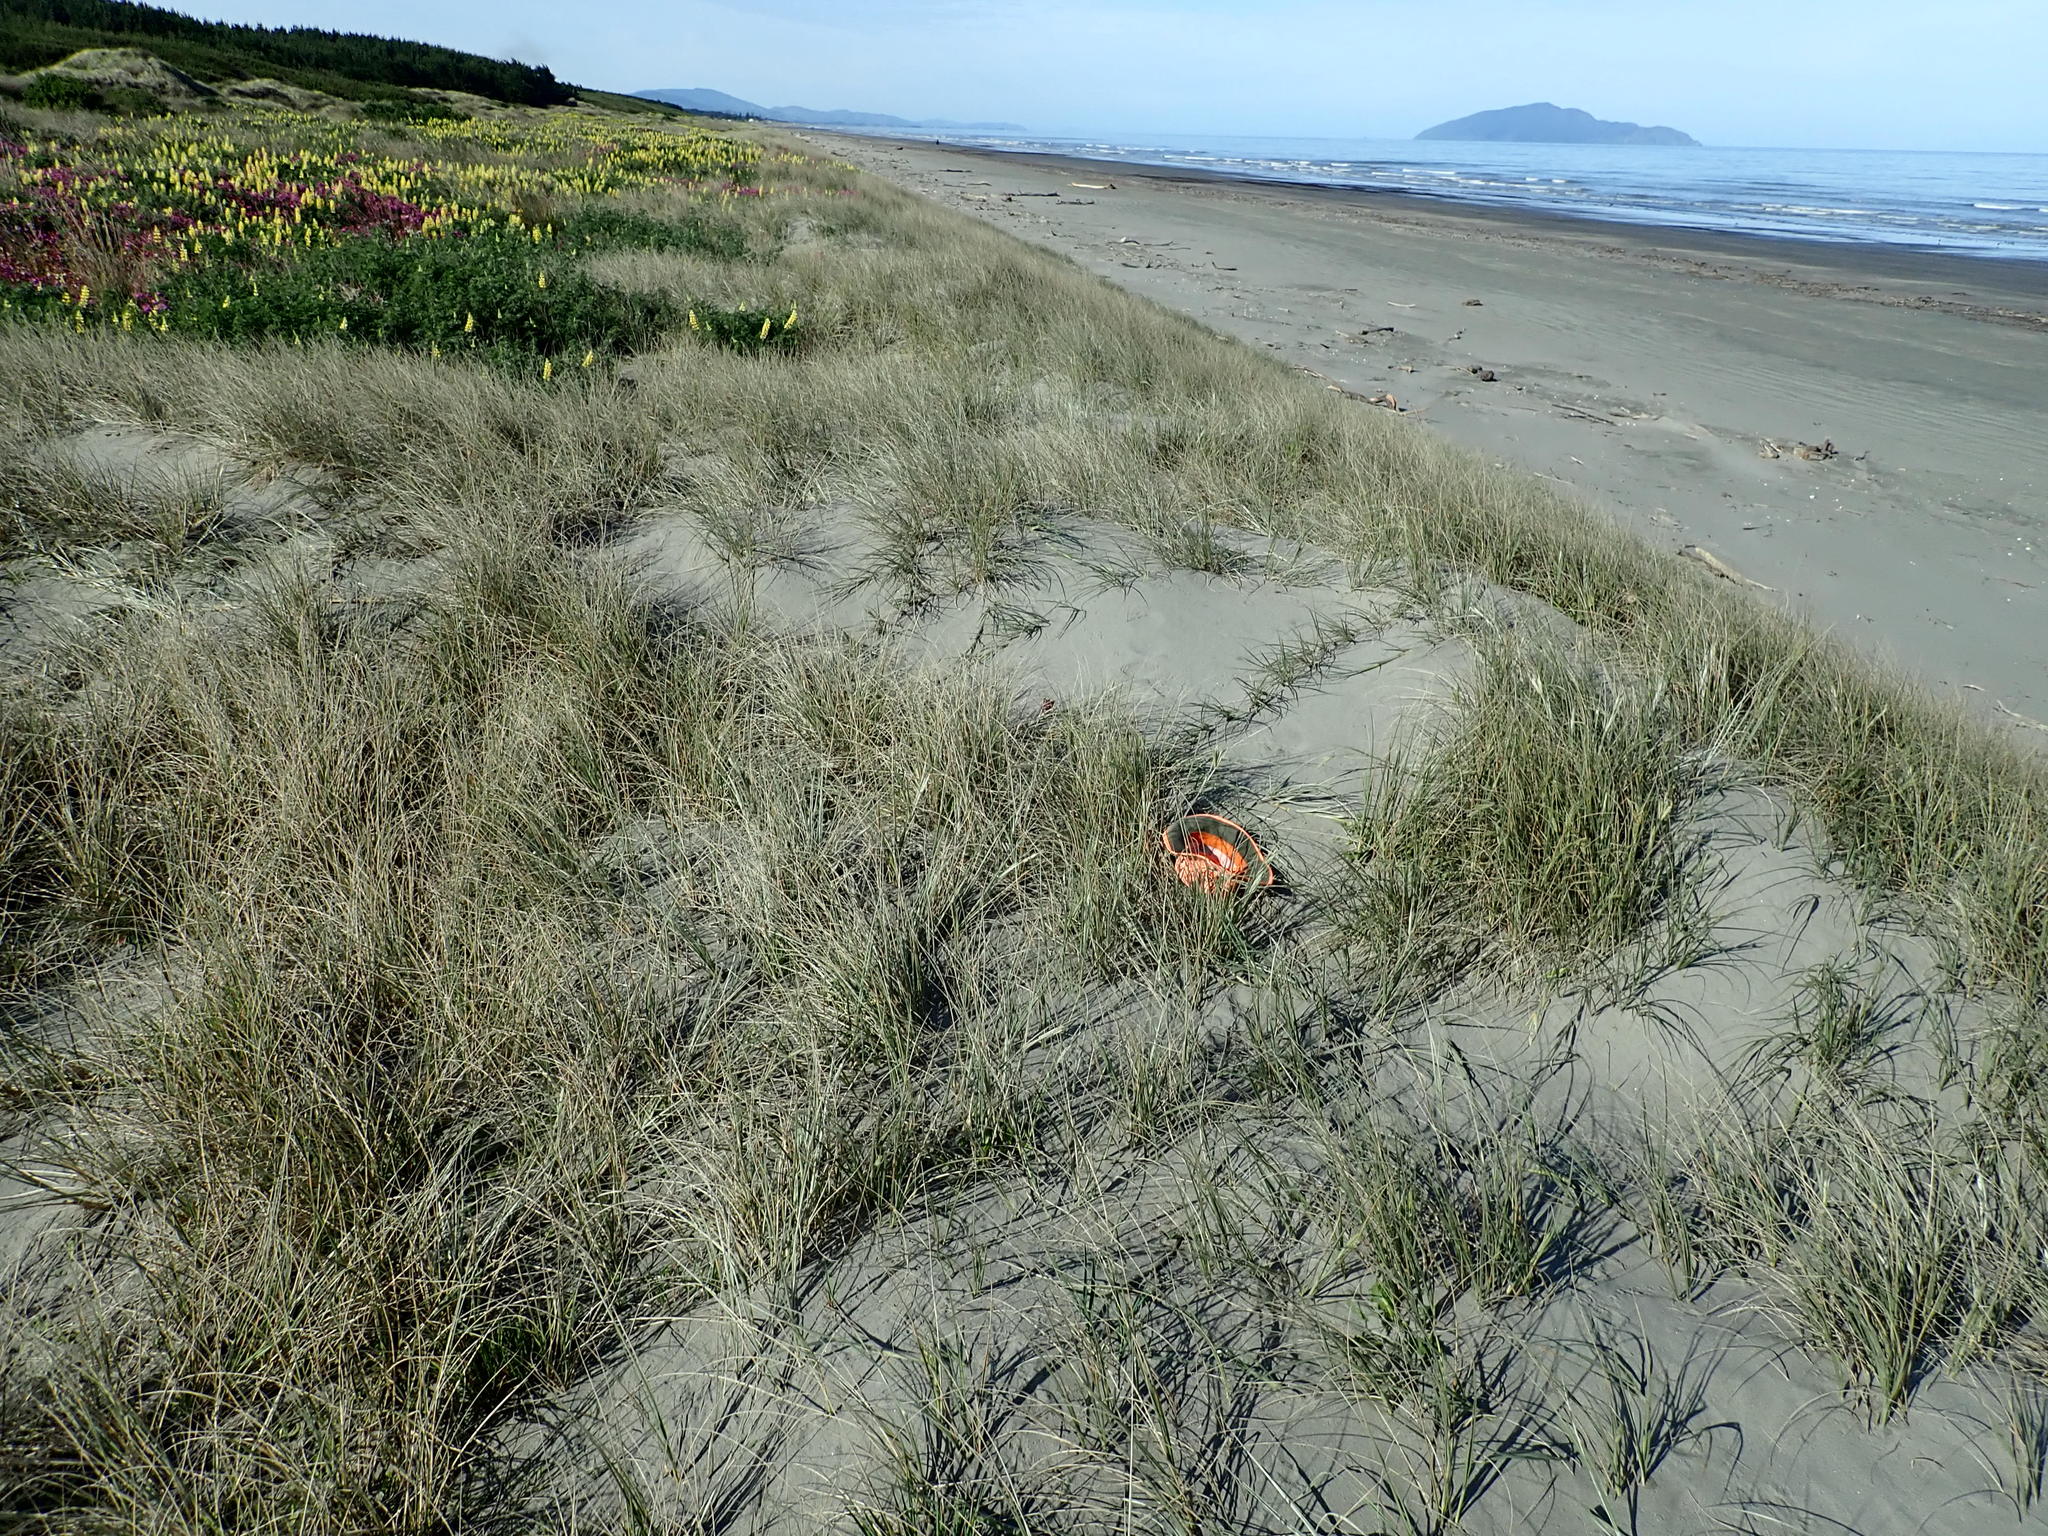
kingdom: Plantae
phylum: Tracheophyta
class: Liliopsida
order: Poales
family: Poaceae
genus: Spinifex
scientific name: Spinifex sericeus
